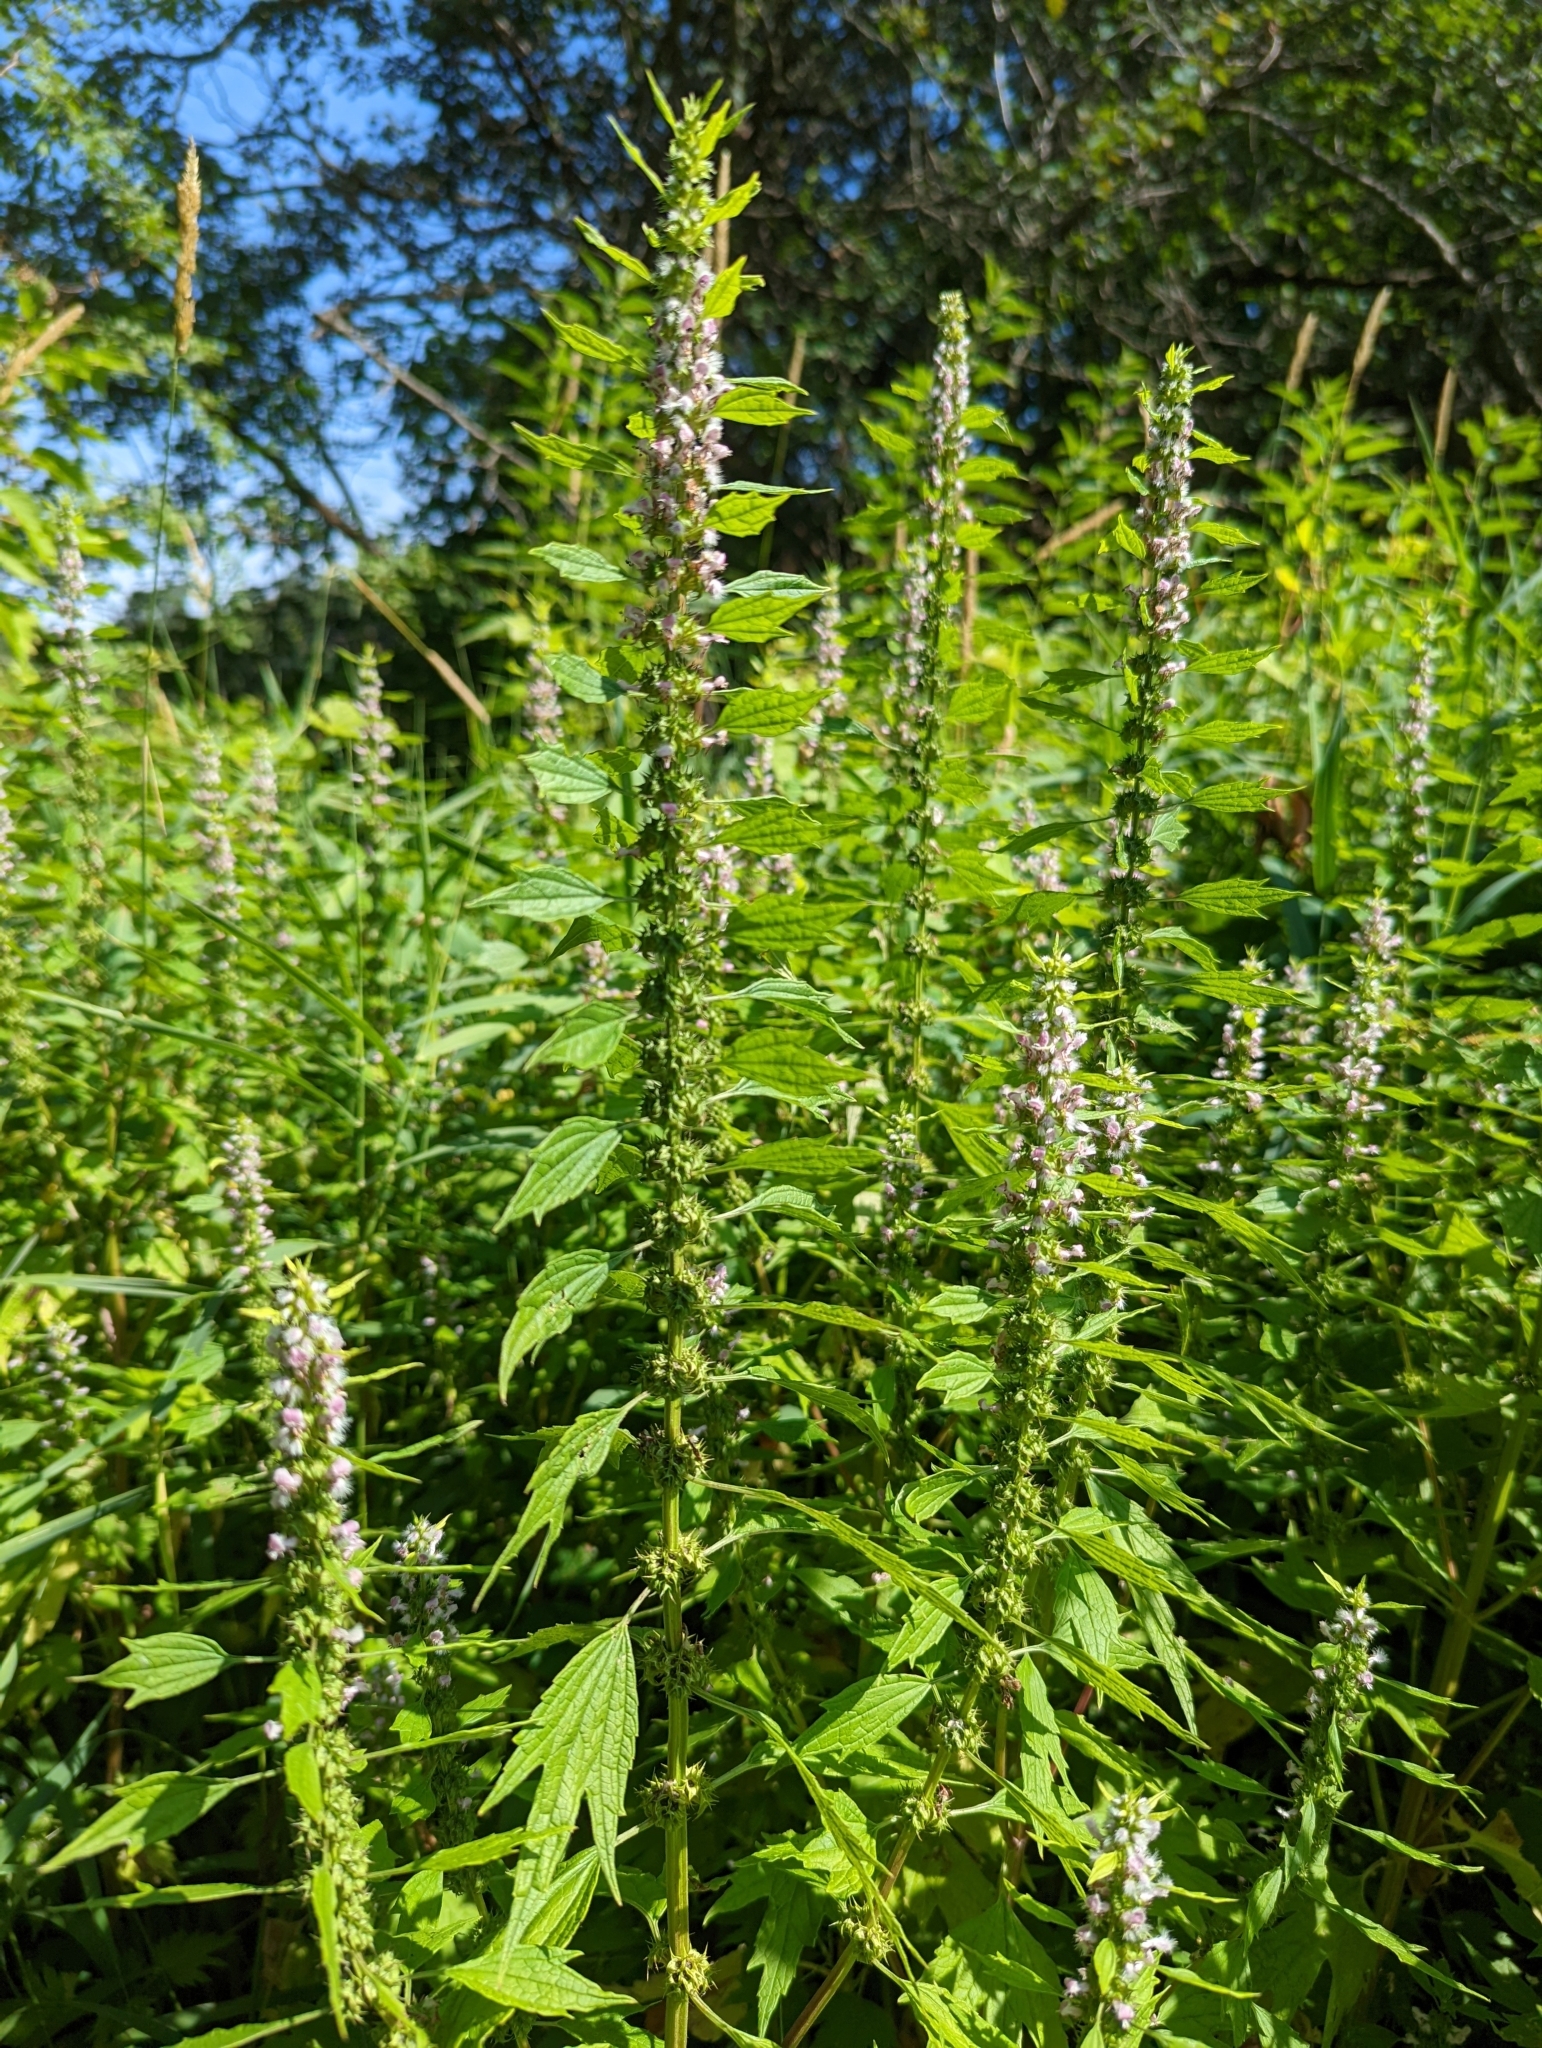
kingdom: Plantae
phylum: Tracheophyta
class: Magnoliopsida
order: Lamiales
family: Lamiaceae
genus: Leonurus
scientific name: Leonurus cardiaca
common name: Motherwort
